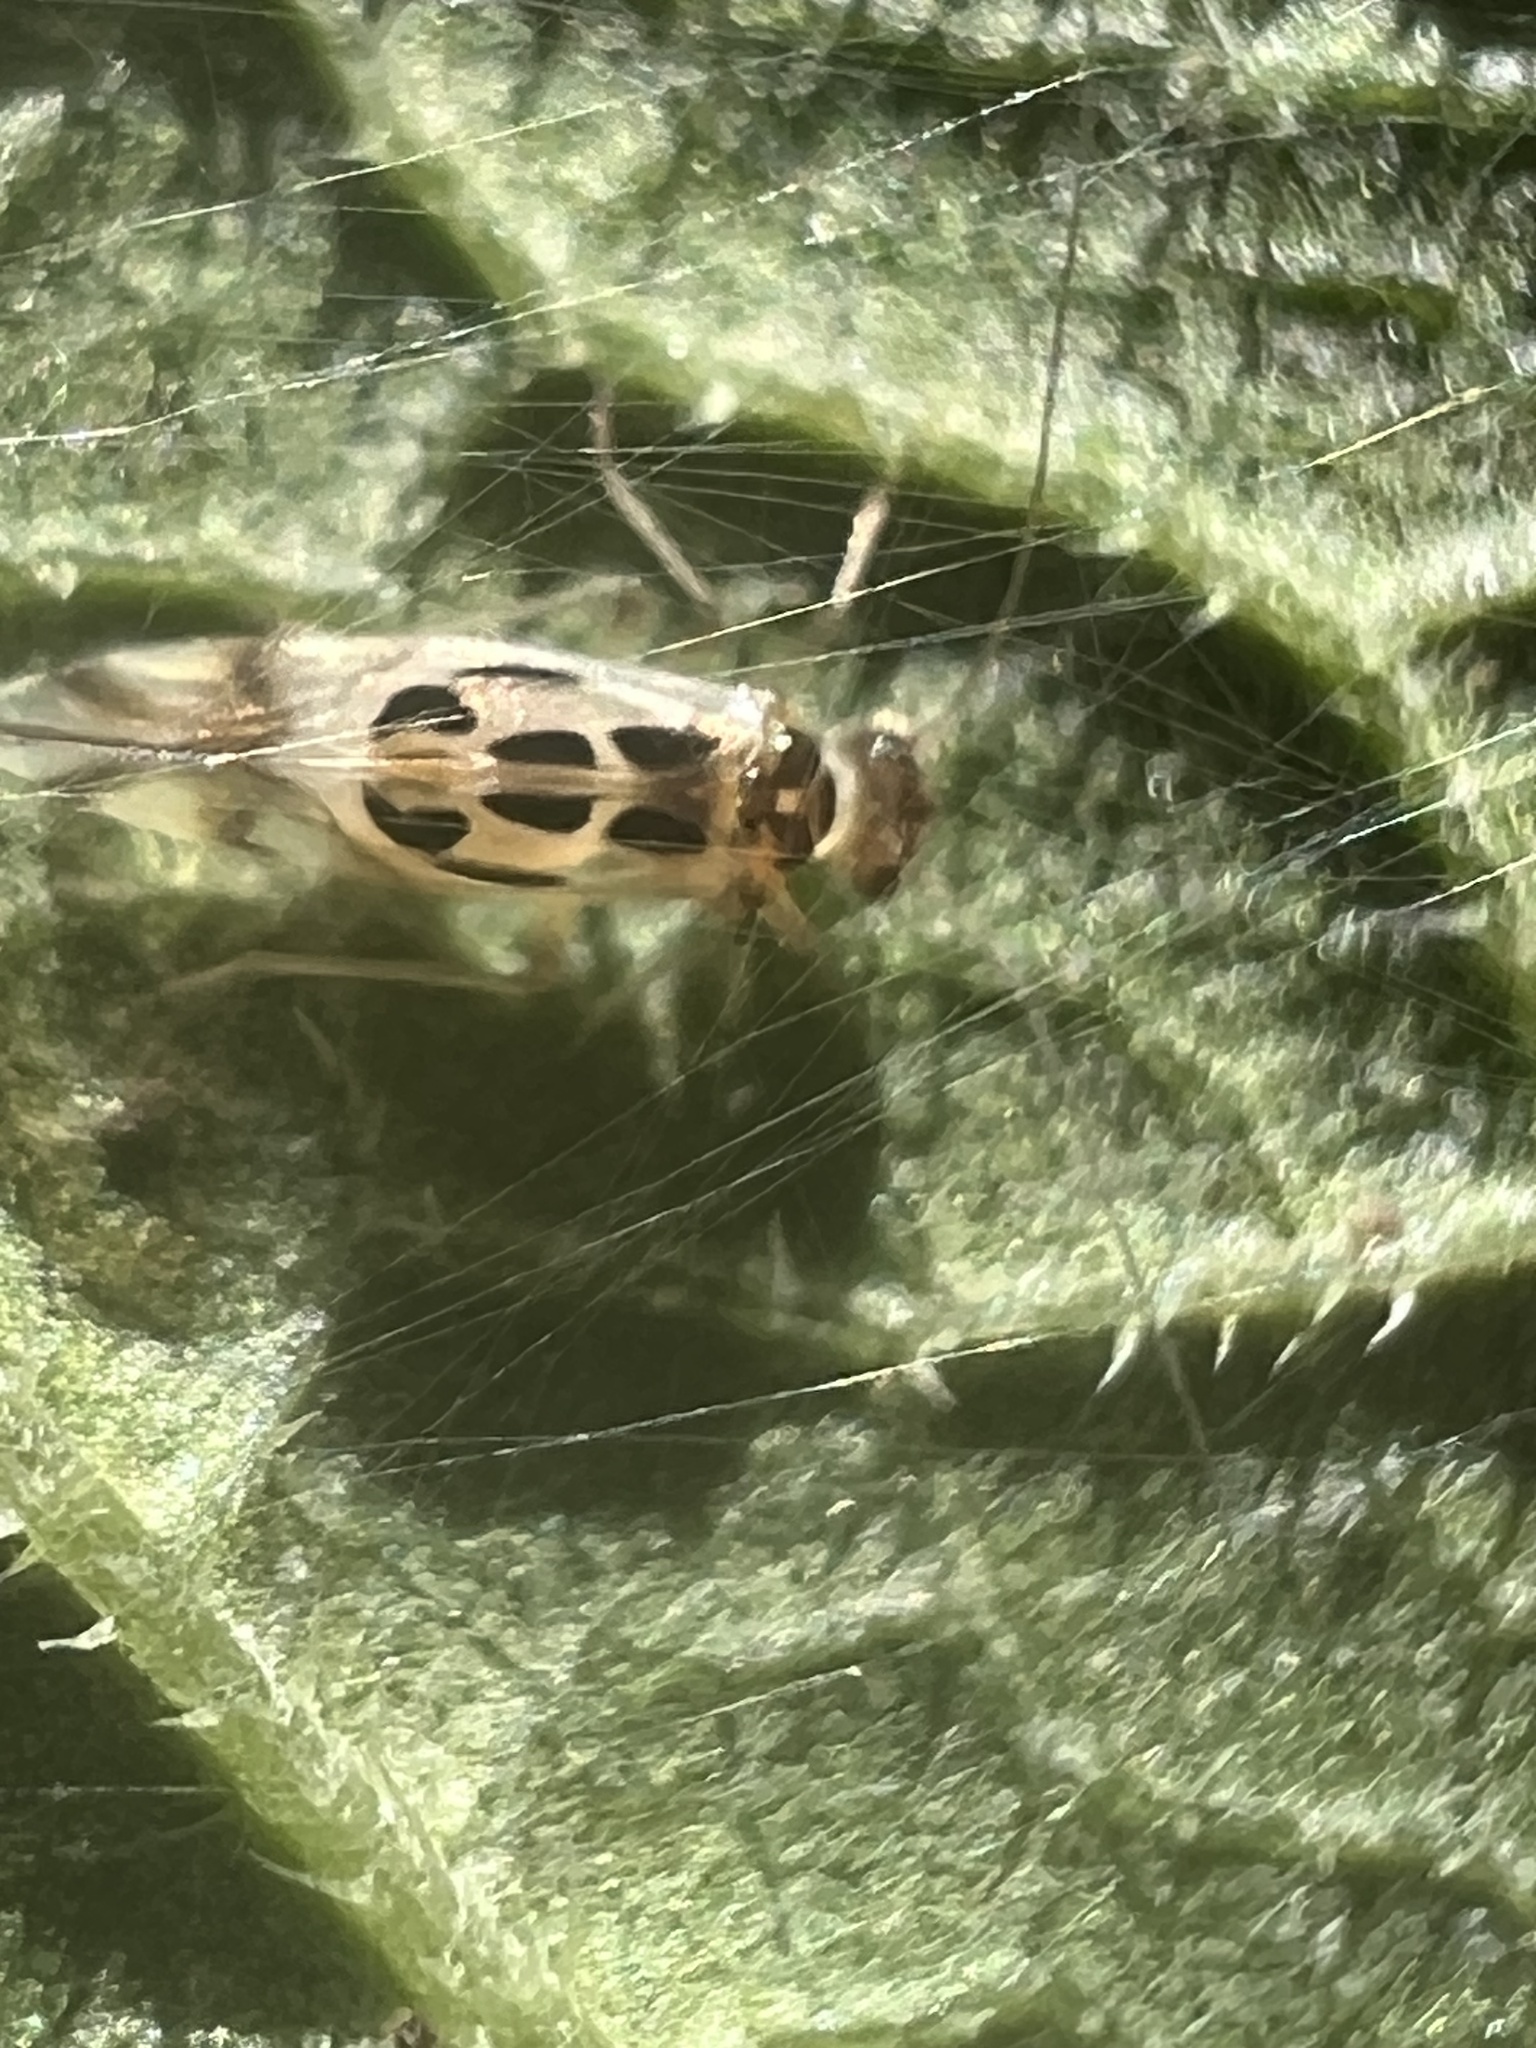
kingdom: Animalia
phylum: Arthropoda
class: Insecta
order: Psocodea
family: Stenopsocidae
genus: Graphopsocus
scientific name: Graphopsocus cruciatus
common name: Lizard bark louse
